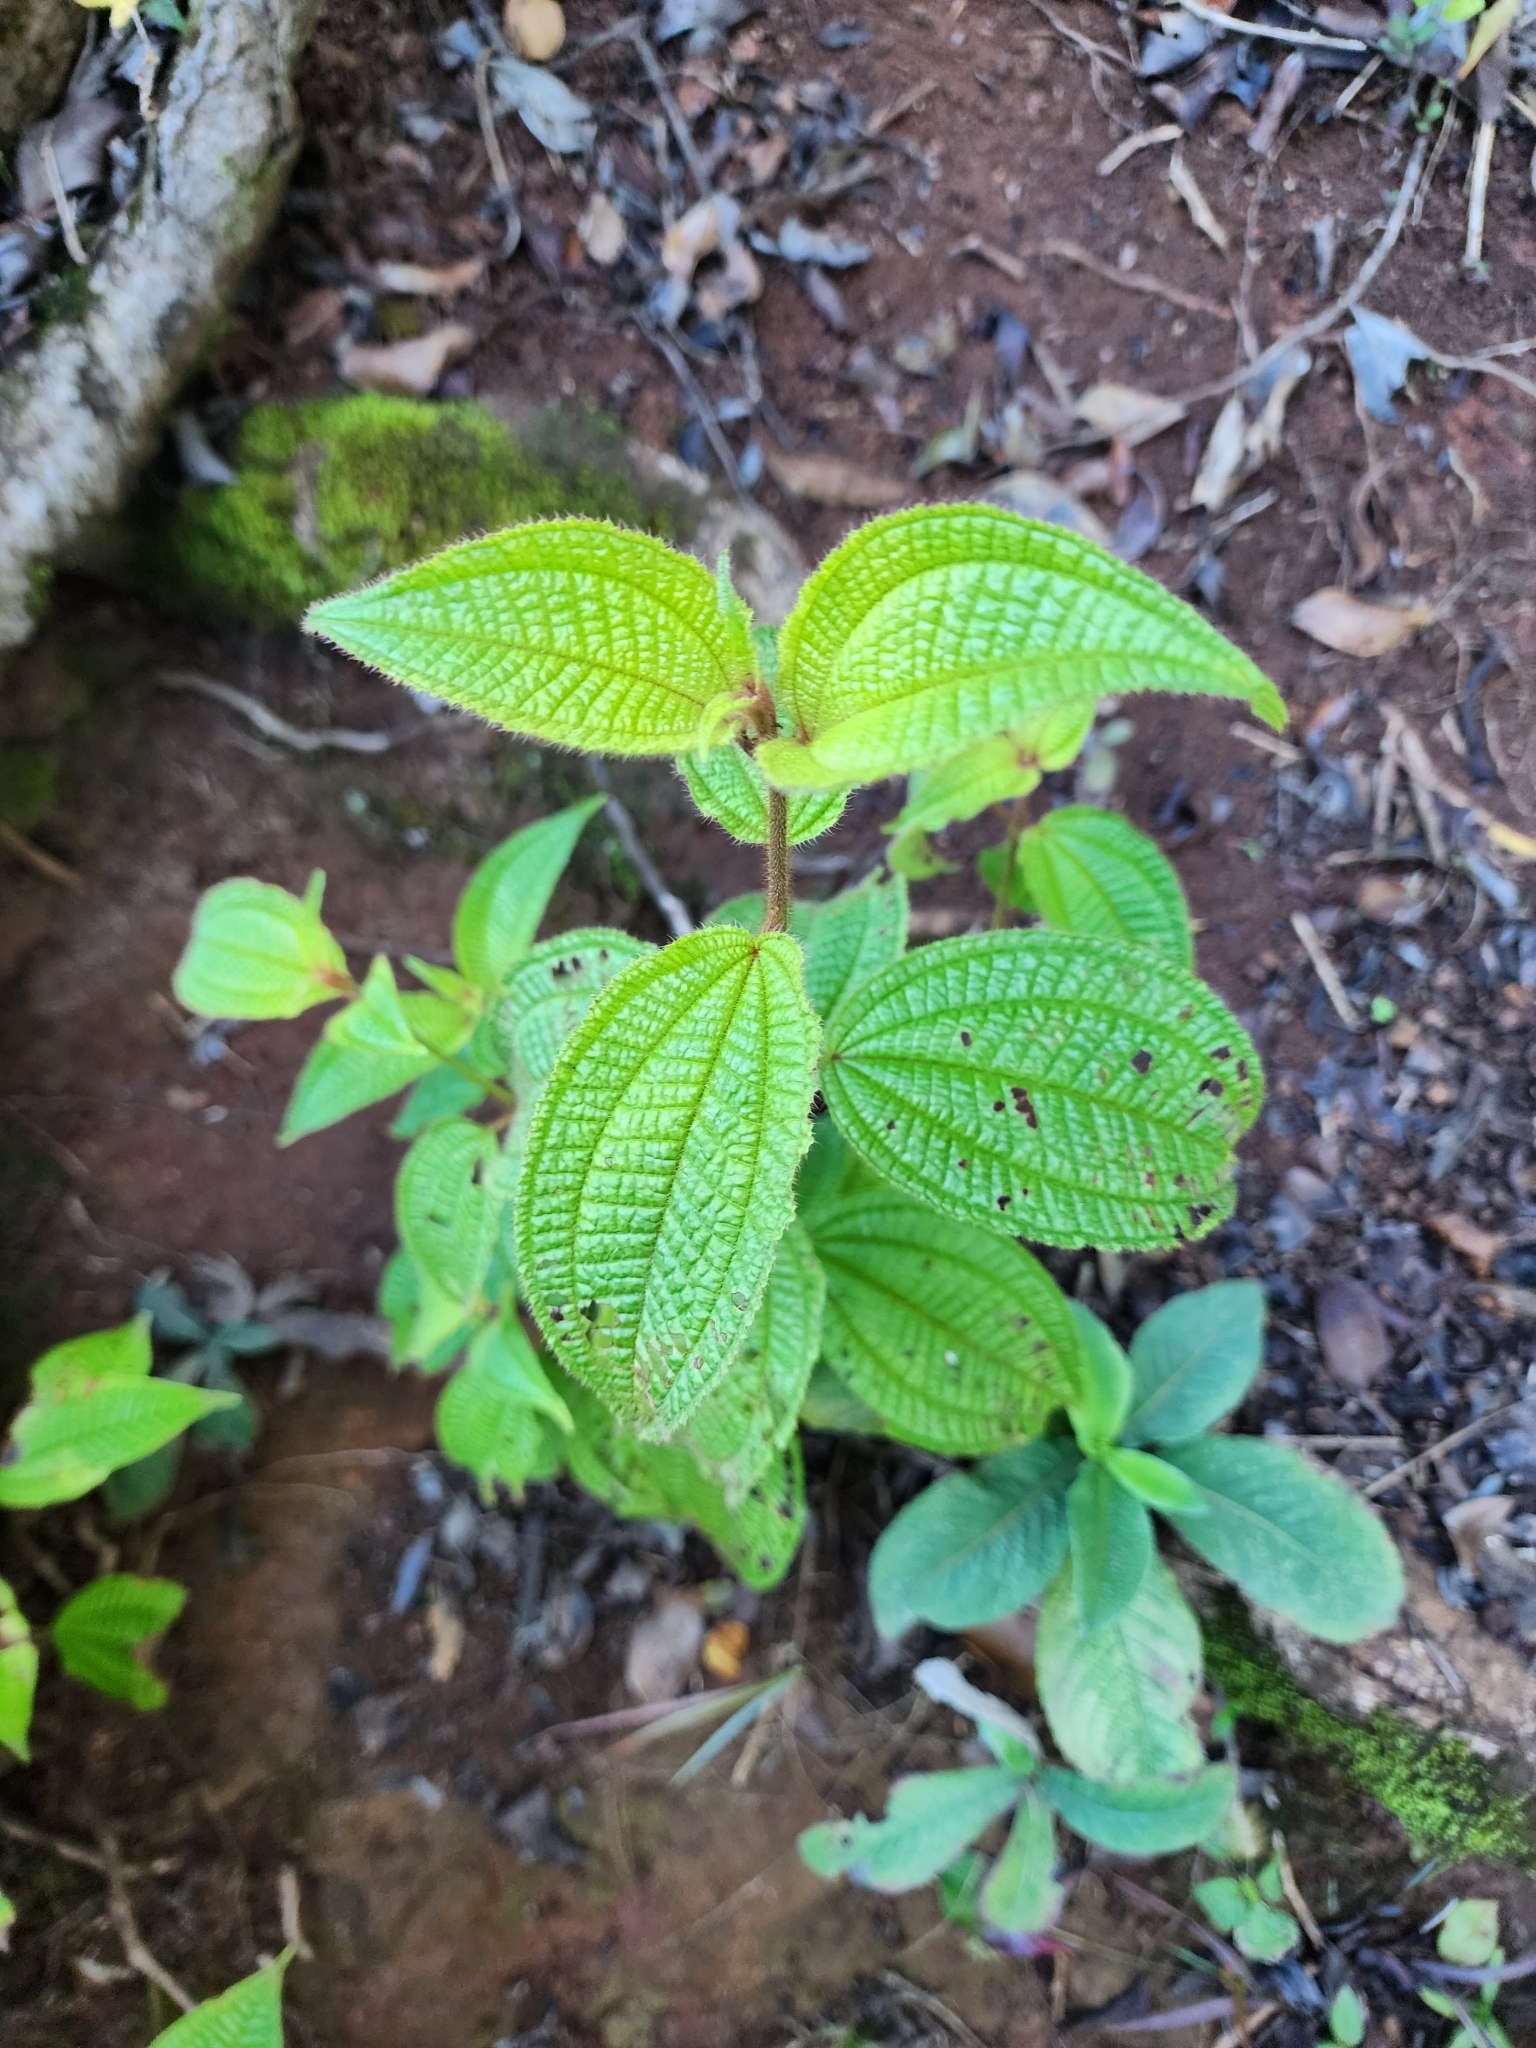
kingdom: Plantae
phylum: Tracheophyta
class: Magnoliopsida
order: Myrtales
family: Melastomataceae
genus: Miconia
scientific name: Miconia crenata
